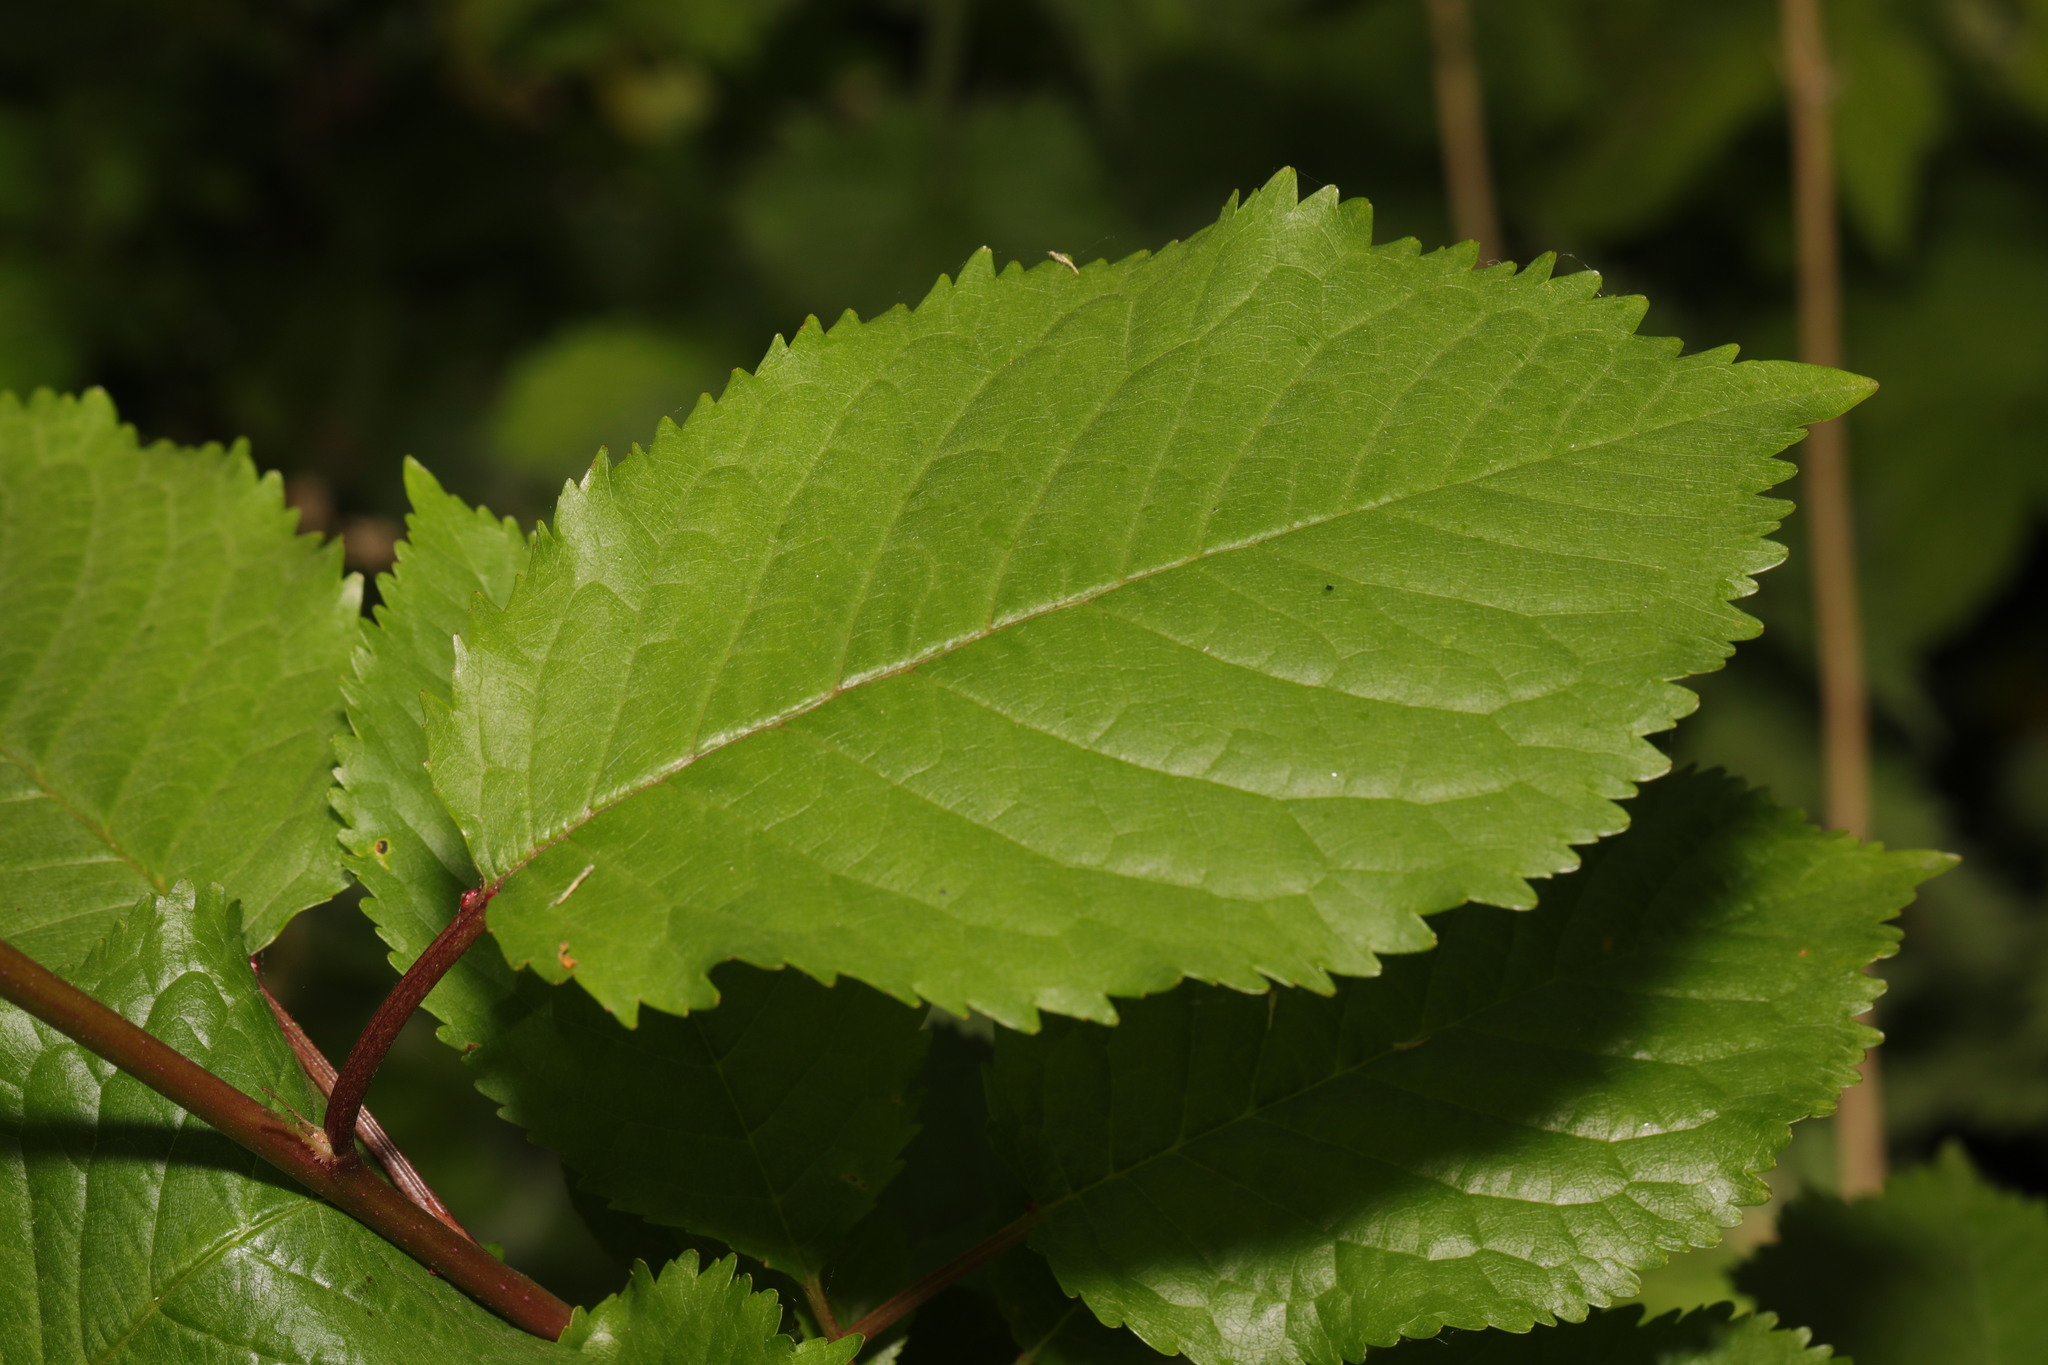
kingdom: Plantae
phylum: Tracheophyta
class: Magnoliopsida
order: Rosales
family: Rosaceae
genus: Prunus
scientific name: Prunus avium
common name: Sweet cherry
